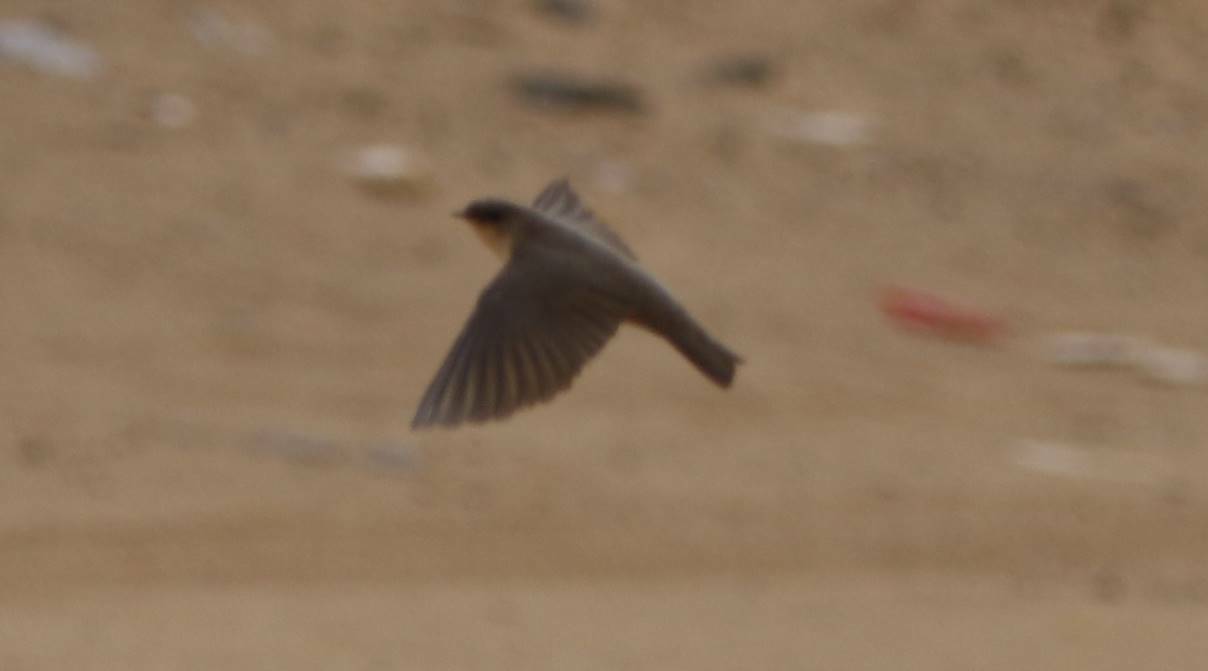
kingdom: Animalia
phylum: Chordata
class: Aves
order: Passeriformes
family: Hirundinidae
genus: Ptyonoprogne
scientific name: Ptyonoprogne fuligula
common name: Rock martin
